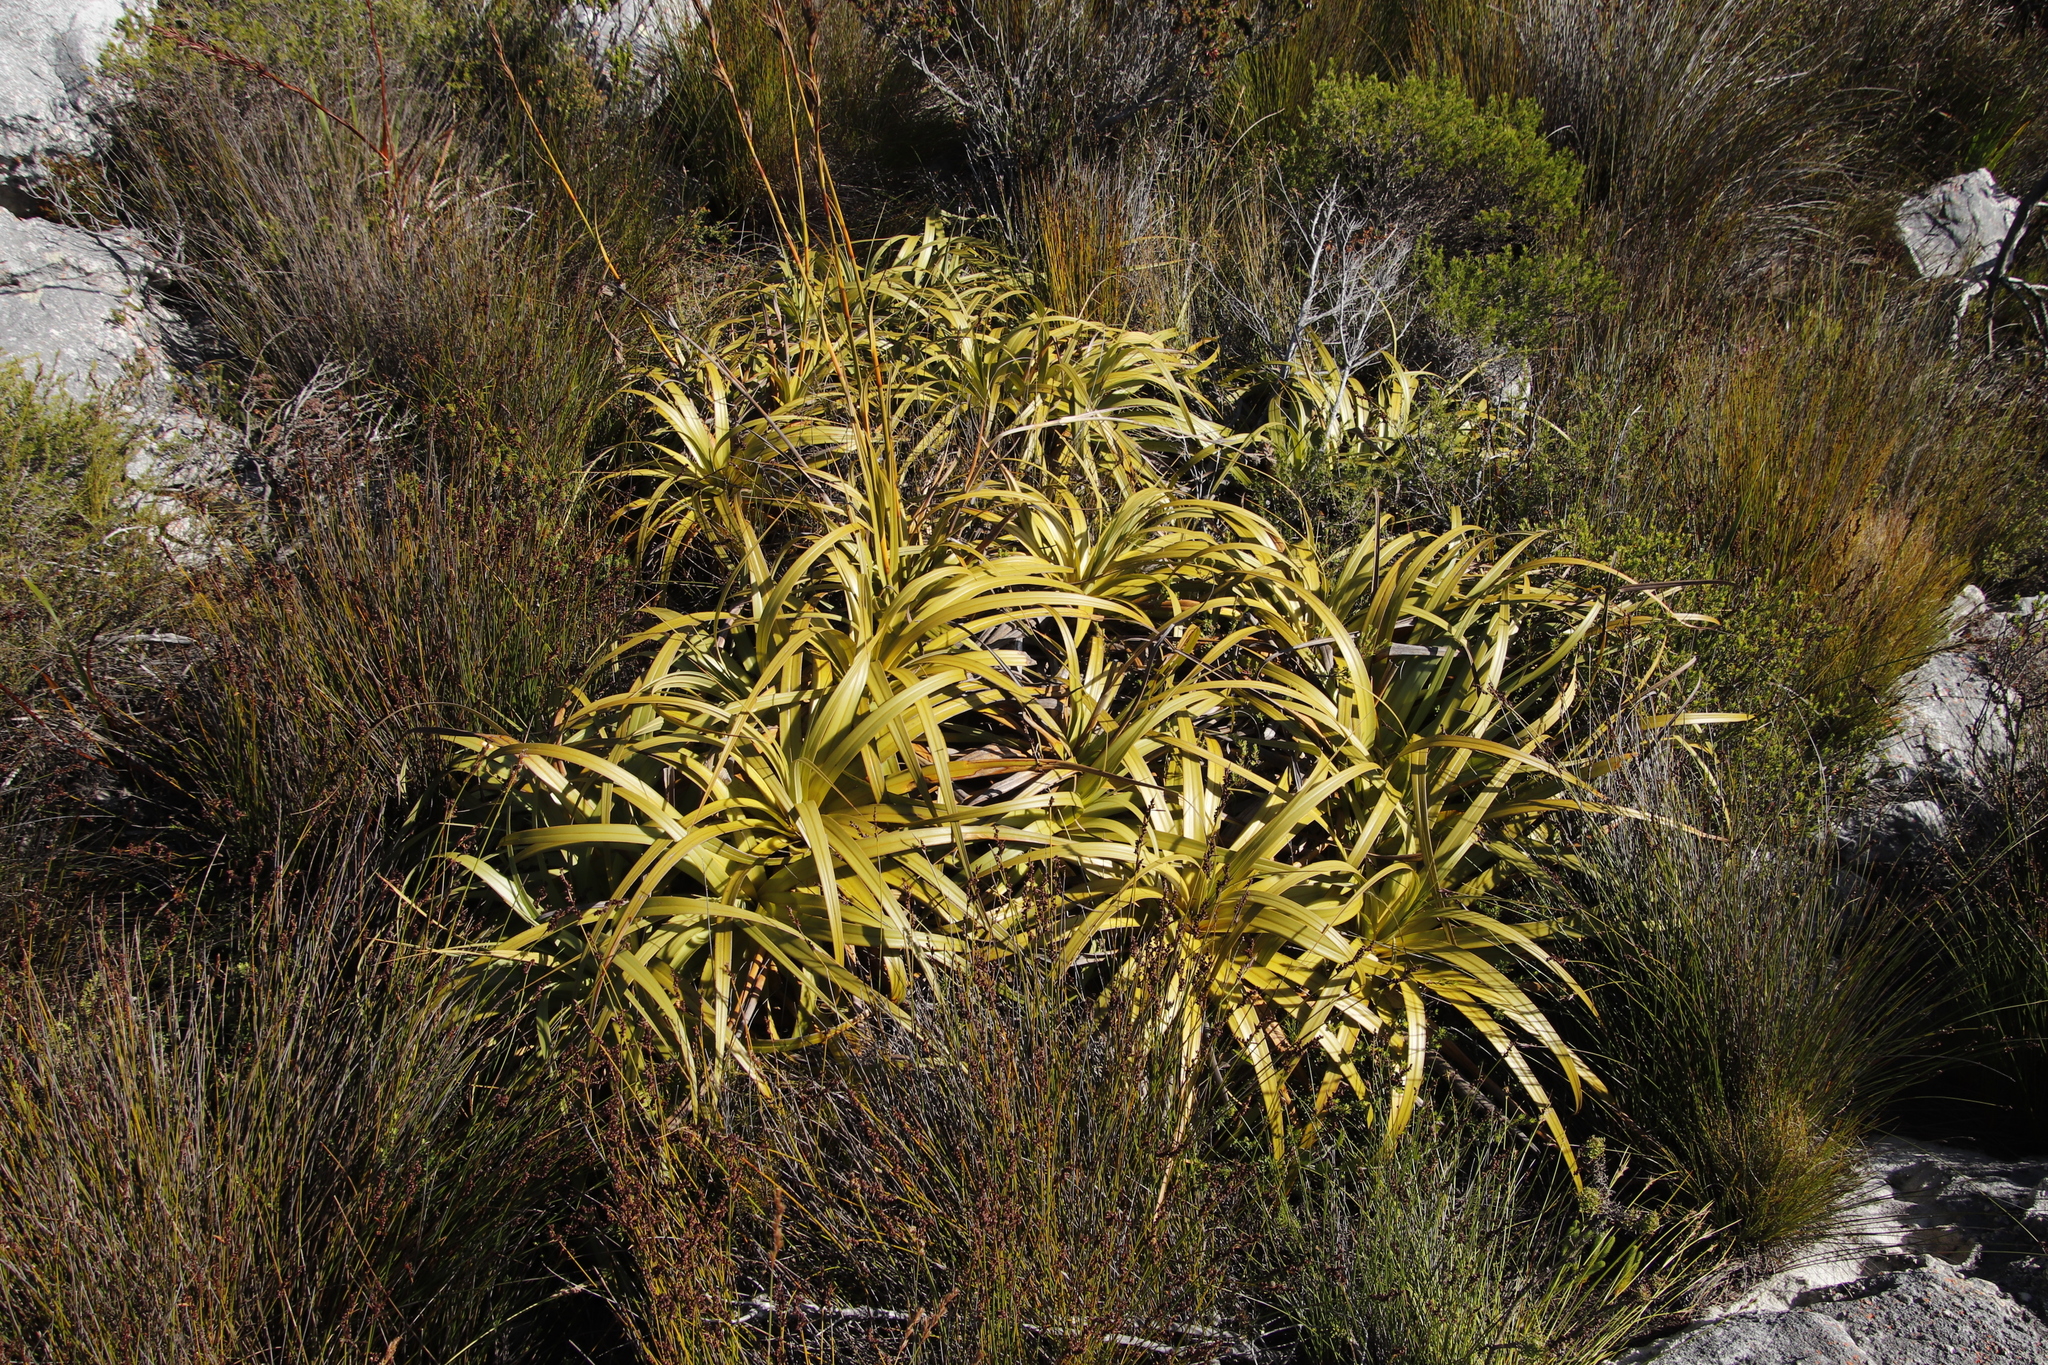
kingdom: Plantae
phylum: Tracheophyta
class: Liliopsida
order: Poales
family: Cyperaceae
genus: Tetraria
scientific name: Tetraria thermalis
